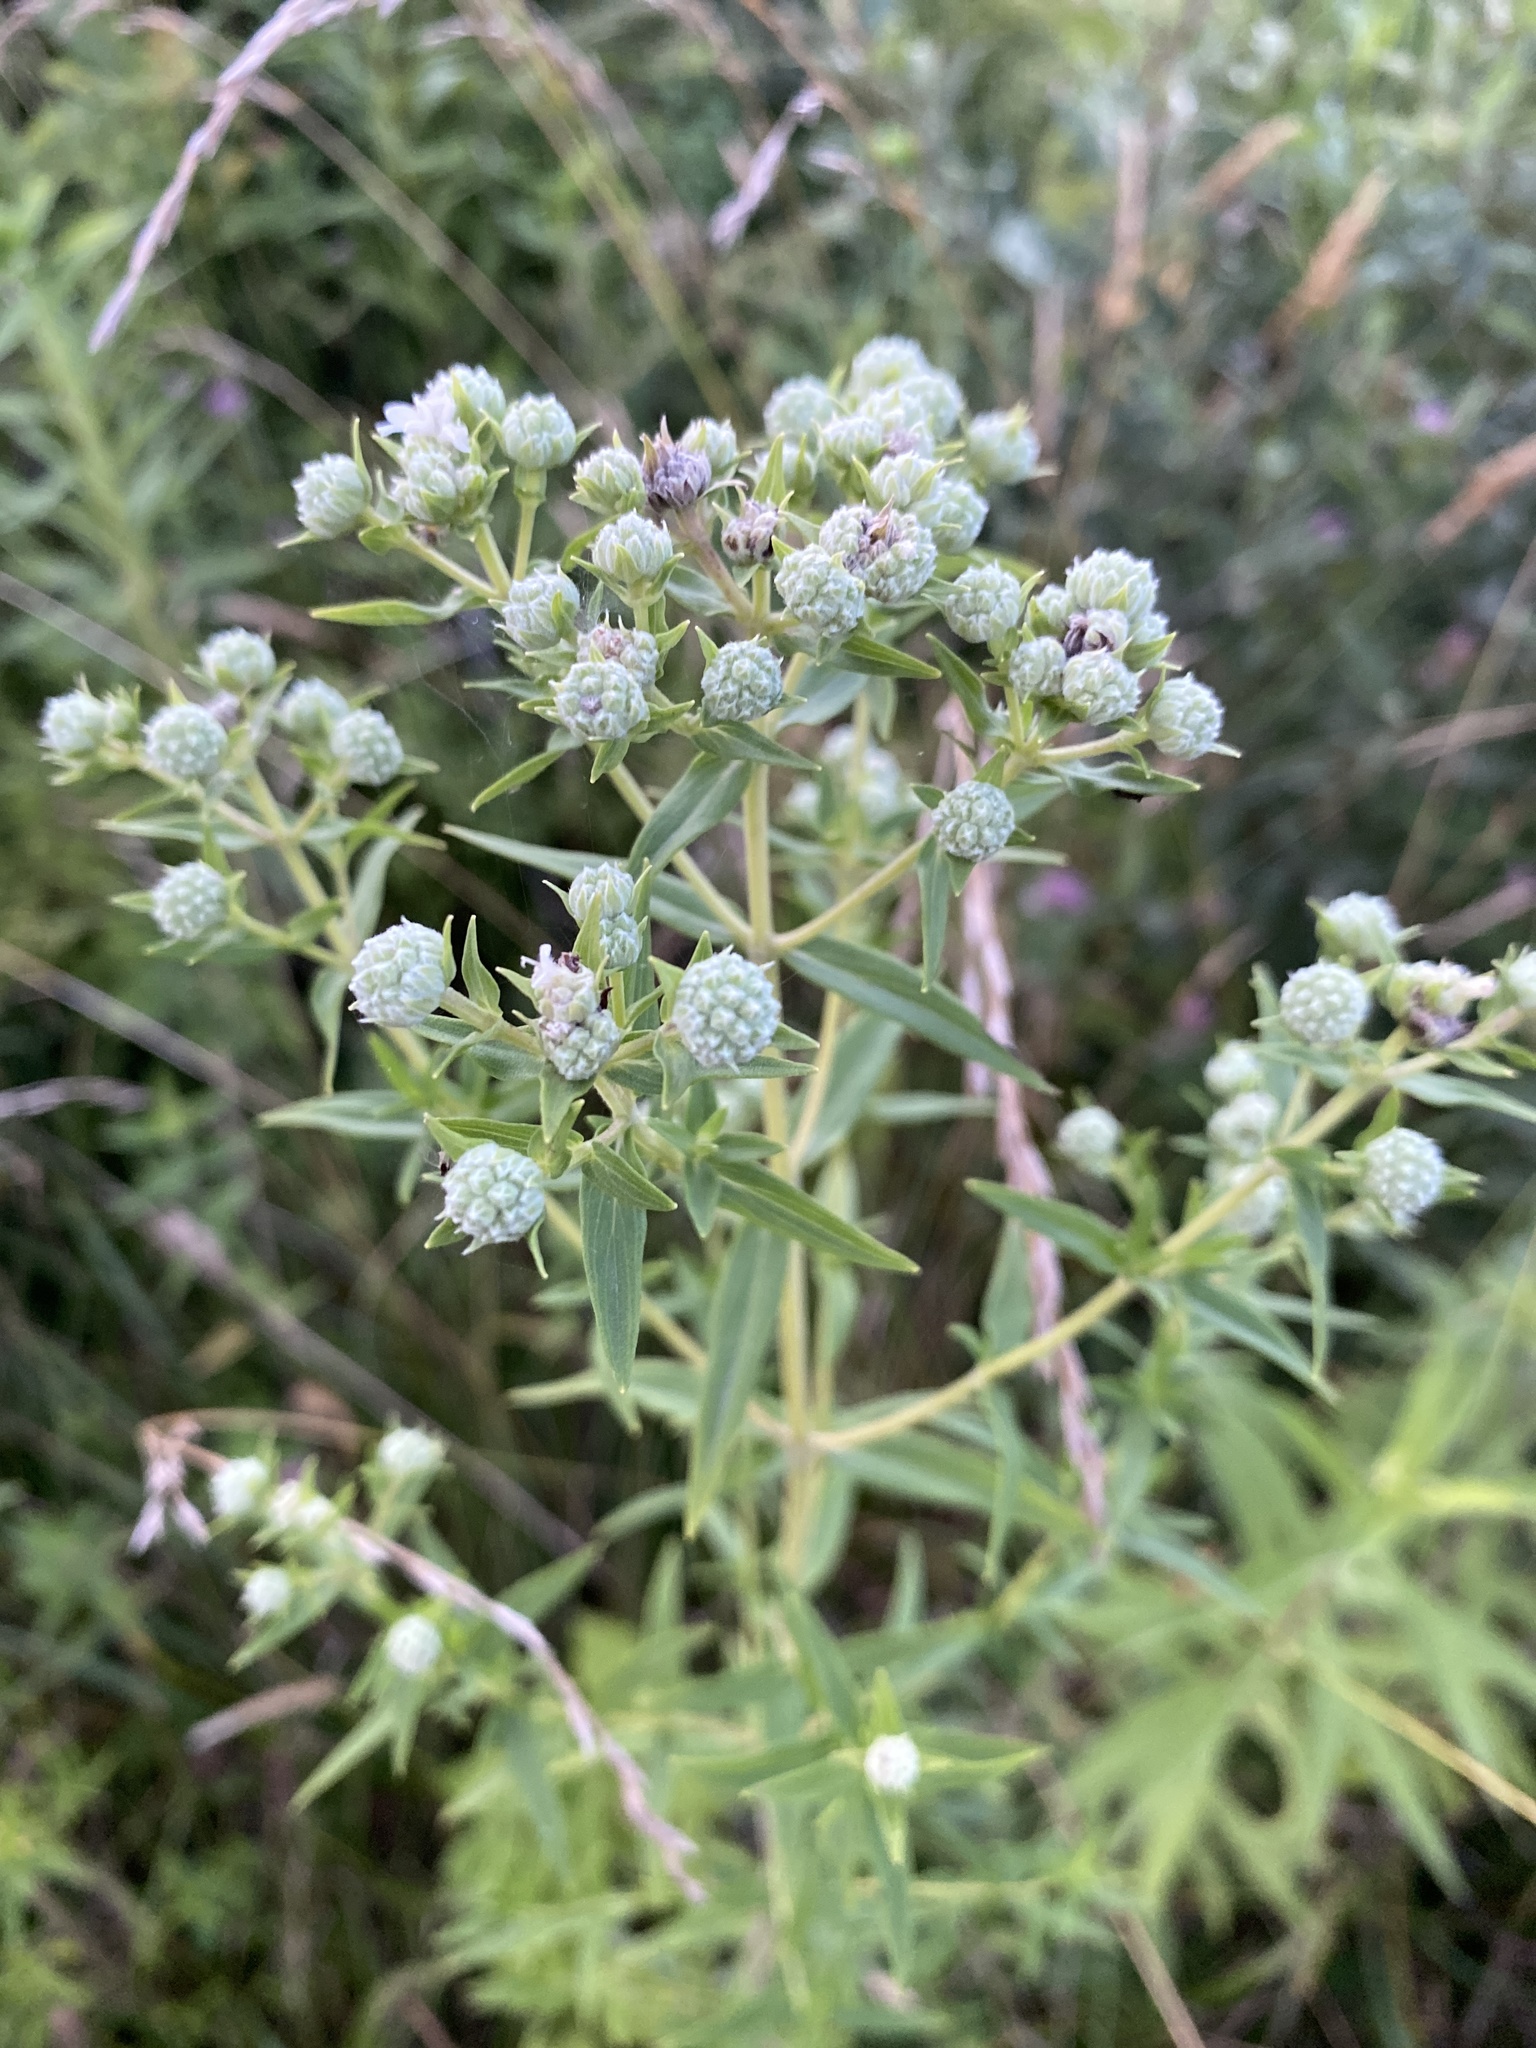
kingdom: Plantae
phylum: Tracheophyta
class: Magnoliopsida
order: Lamiales
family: Lamiaceae
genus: Pycnanthemum
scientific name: Pycnanthemum virginianum
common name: Virginia mountain-mint
